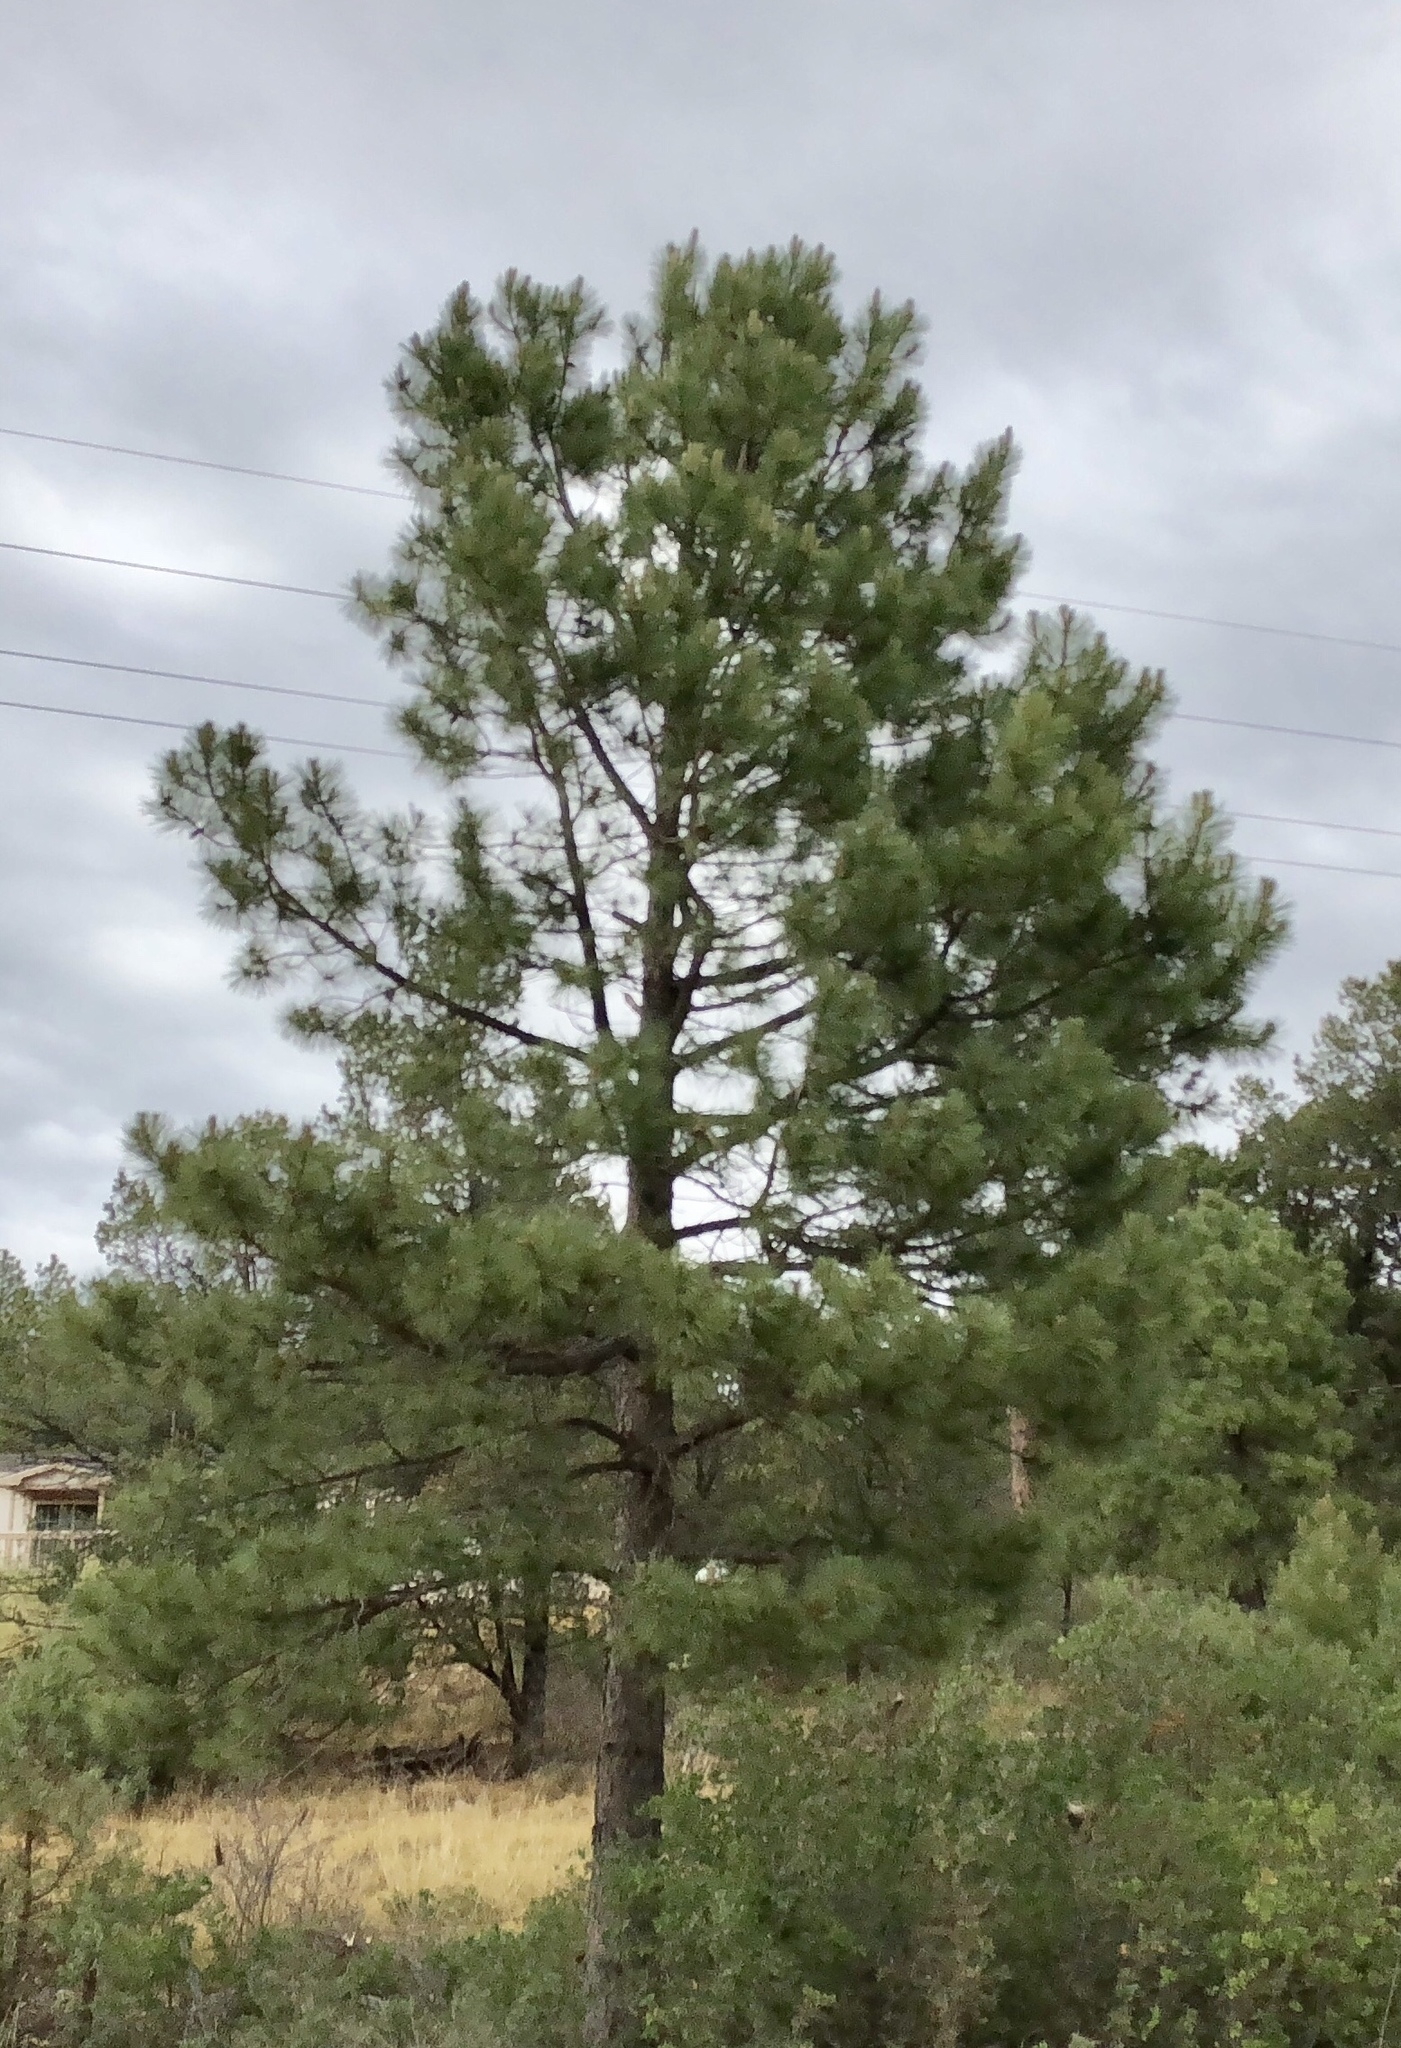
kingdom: Plantae
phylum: Tracheophyta
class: Pinopsida
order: Pinales
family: Pinaceae
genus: Pinus
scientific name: Pinus ponderosa
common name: Western yellow-pine
